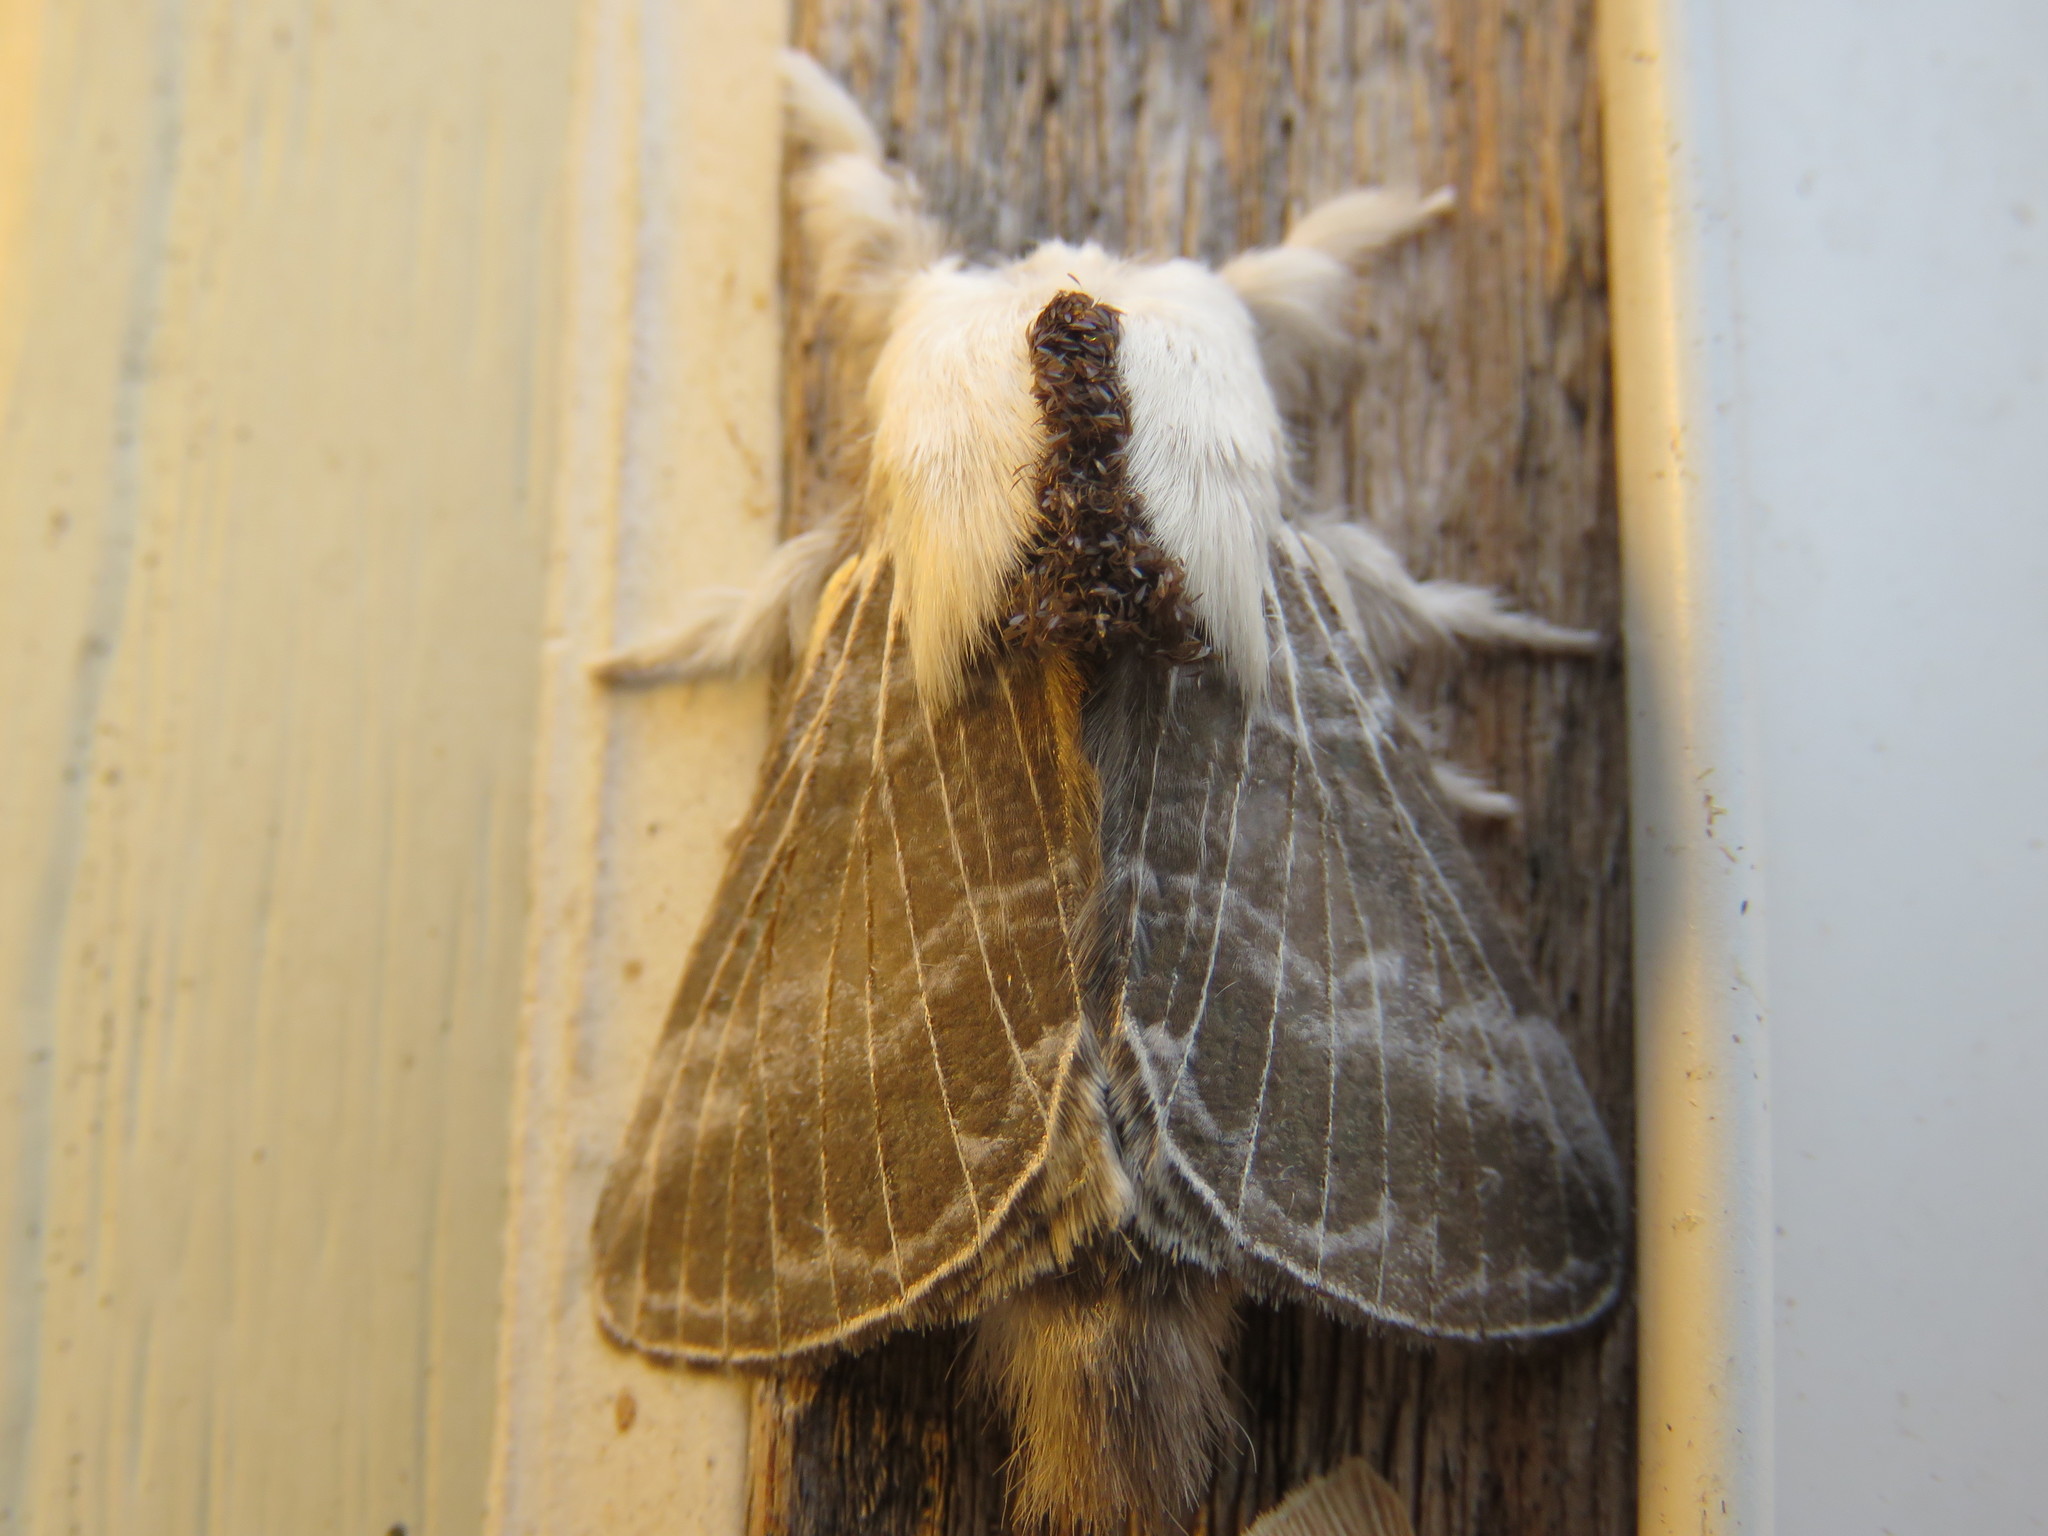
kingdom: Animalia
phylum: Arthropoda
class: Insecta
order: Lepidoptera
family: Lasiocampidae
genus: Tolype
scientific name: Tolype velleda
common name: Large tolype moth
